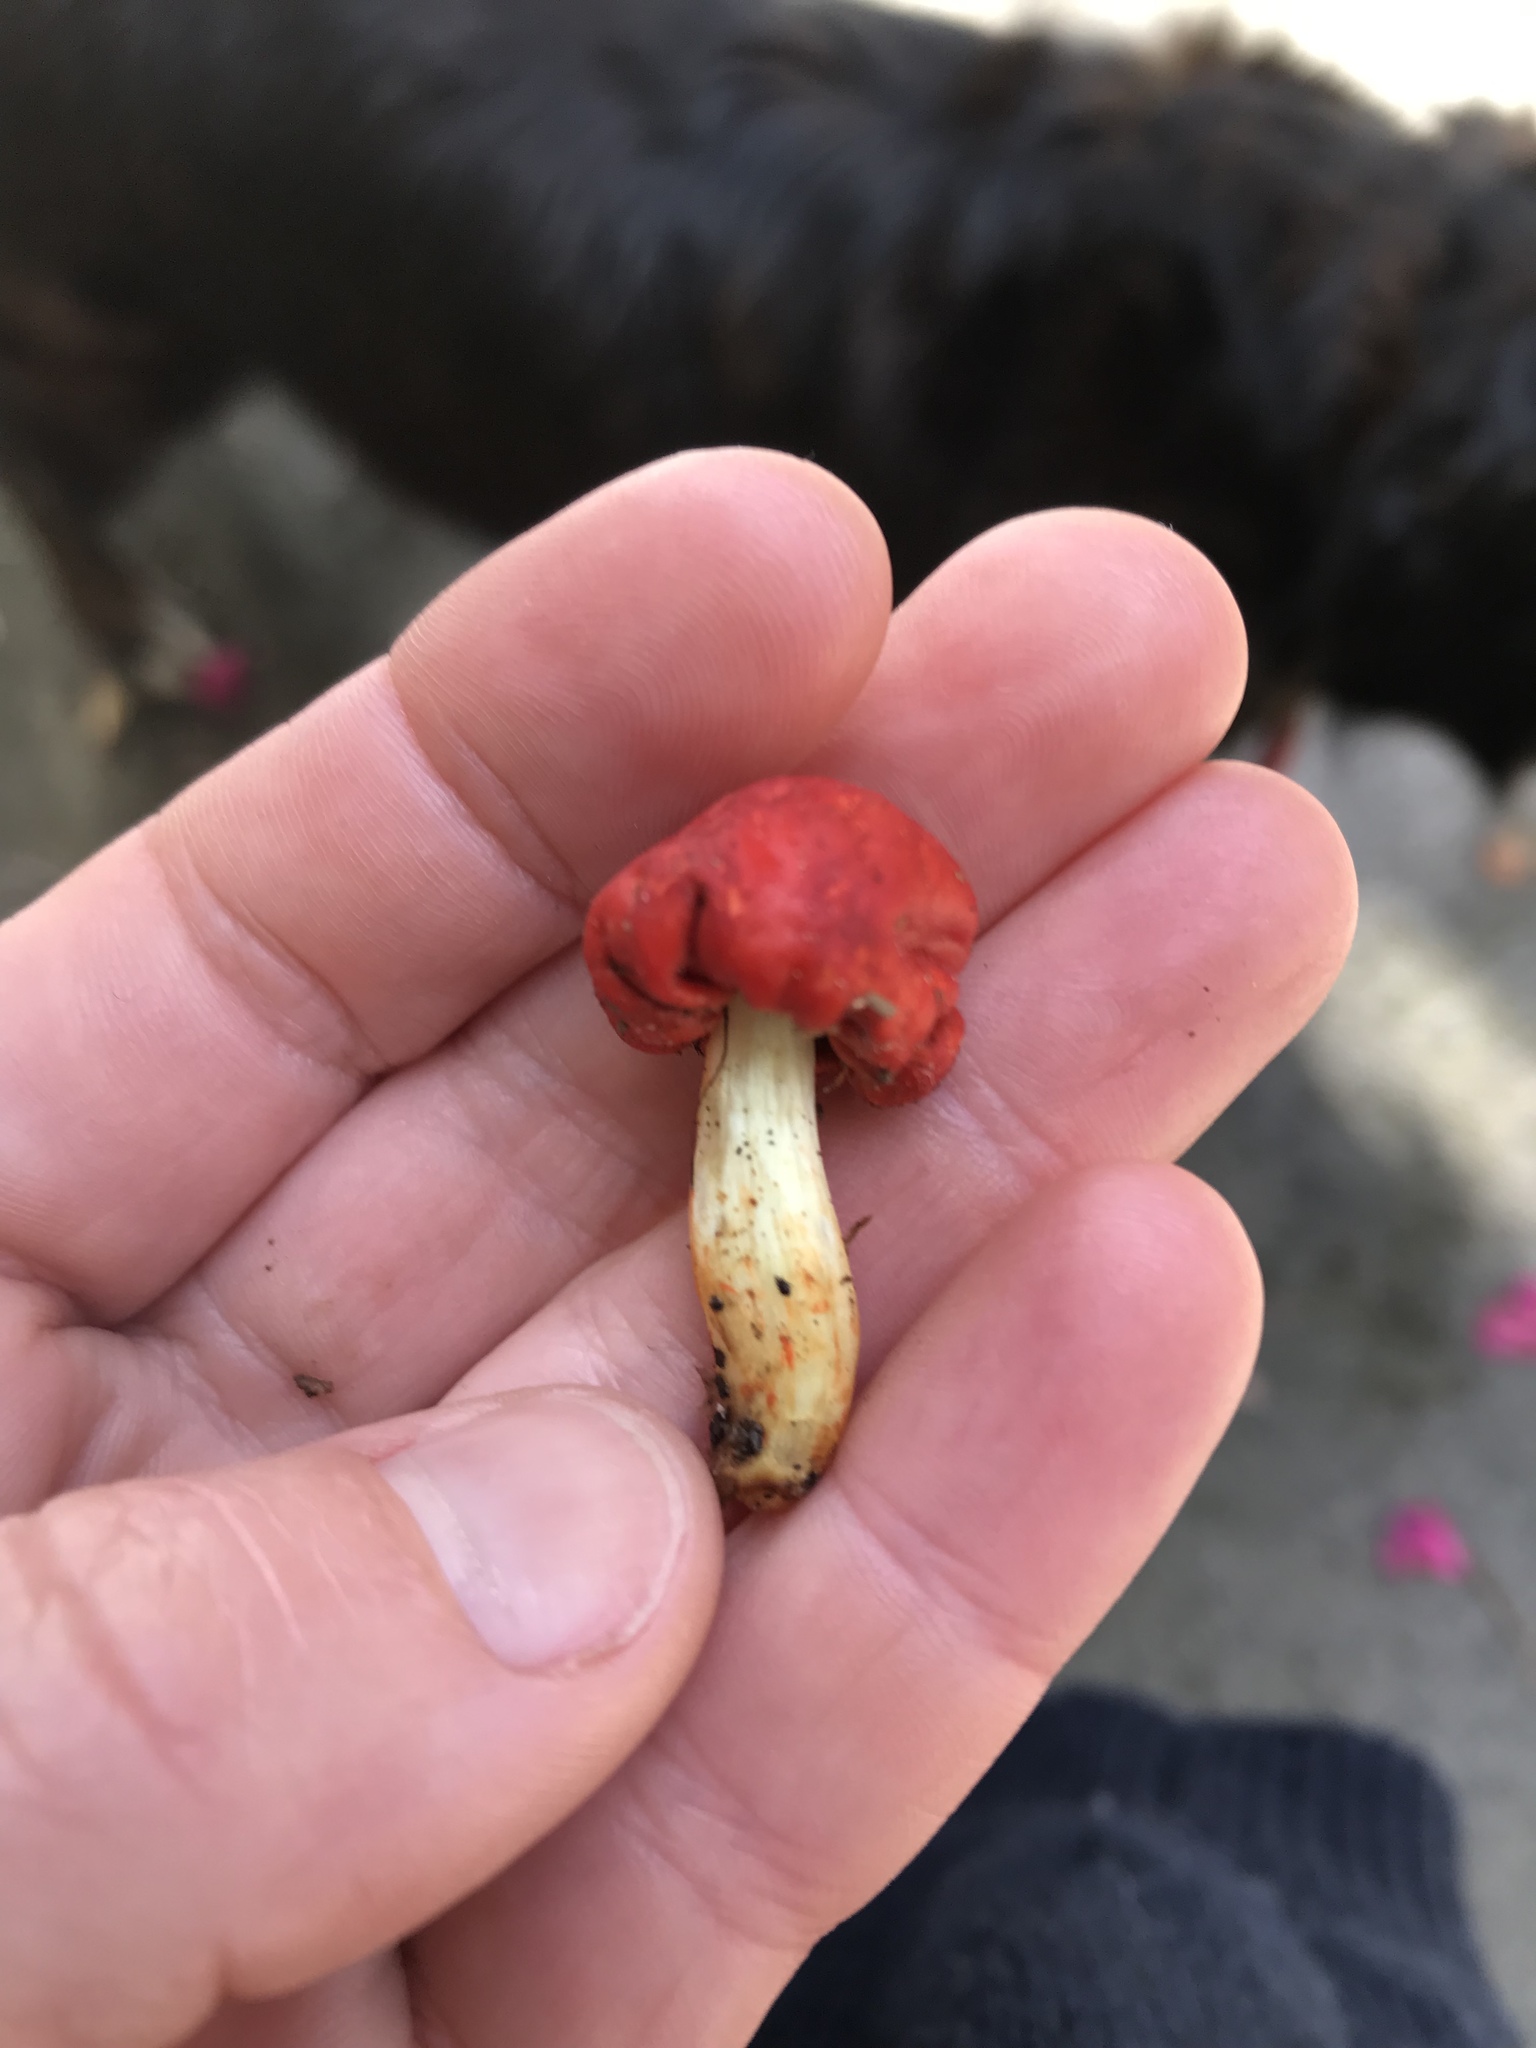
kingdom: Fungi
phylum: Basidiomycota
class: Agaricomycetes
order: Agaricales
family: Strophariaceae
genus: Leratiomyces
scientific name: Leratiomyces erythrocephalus
